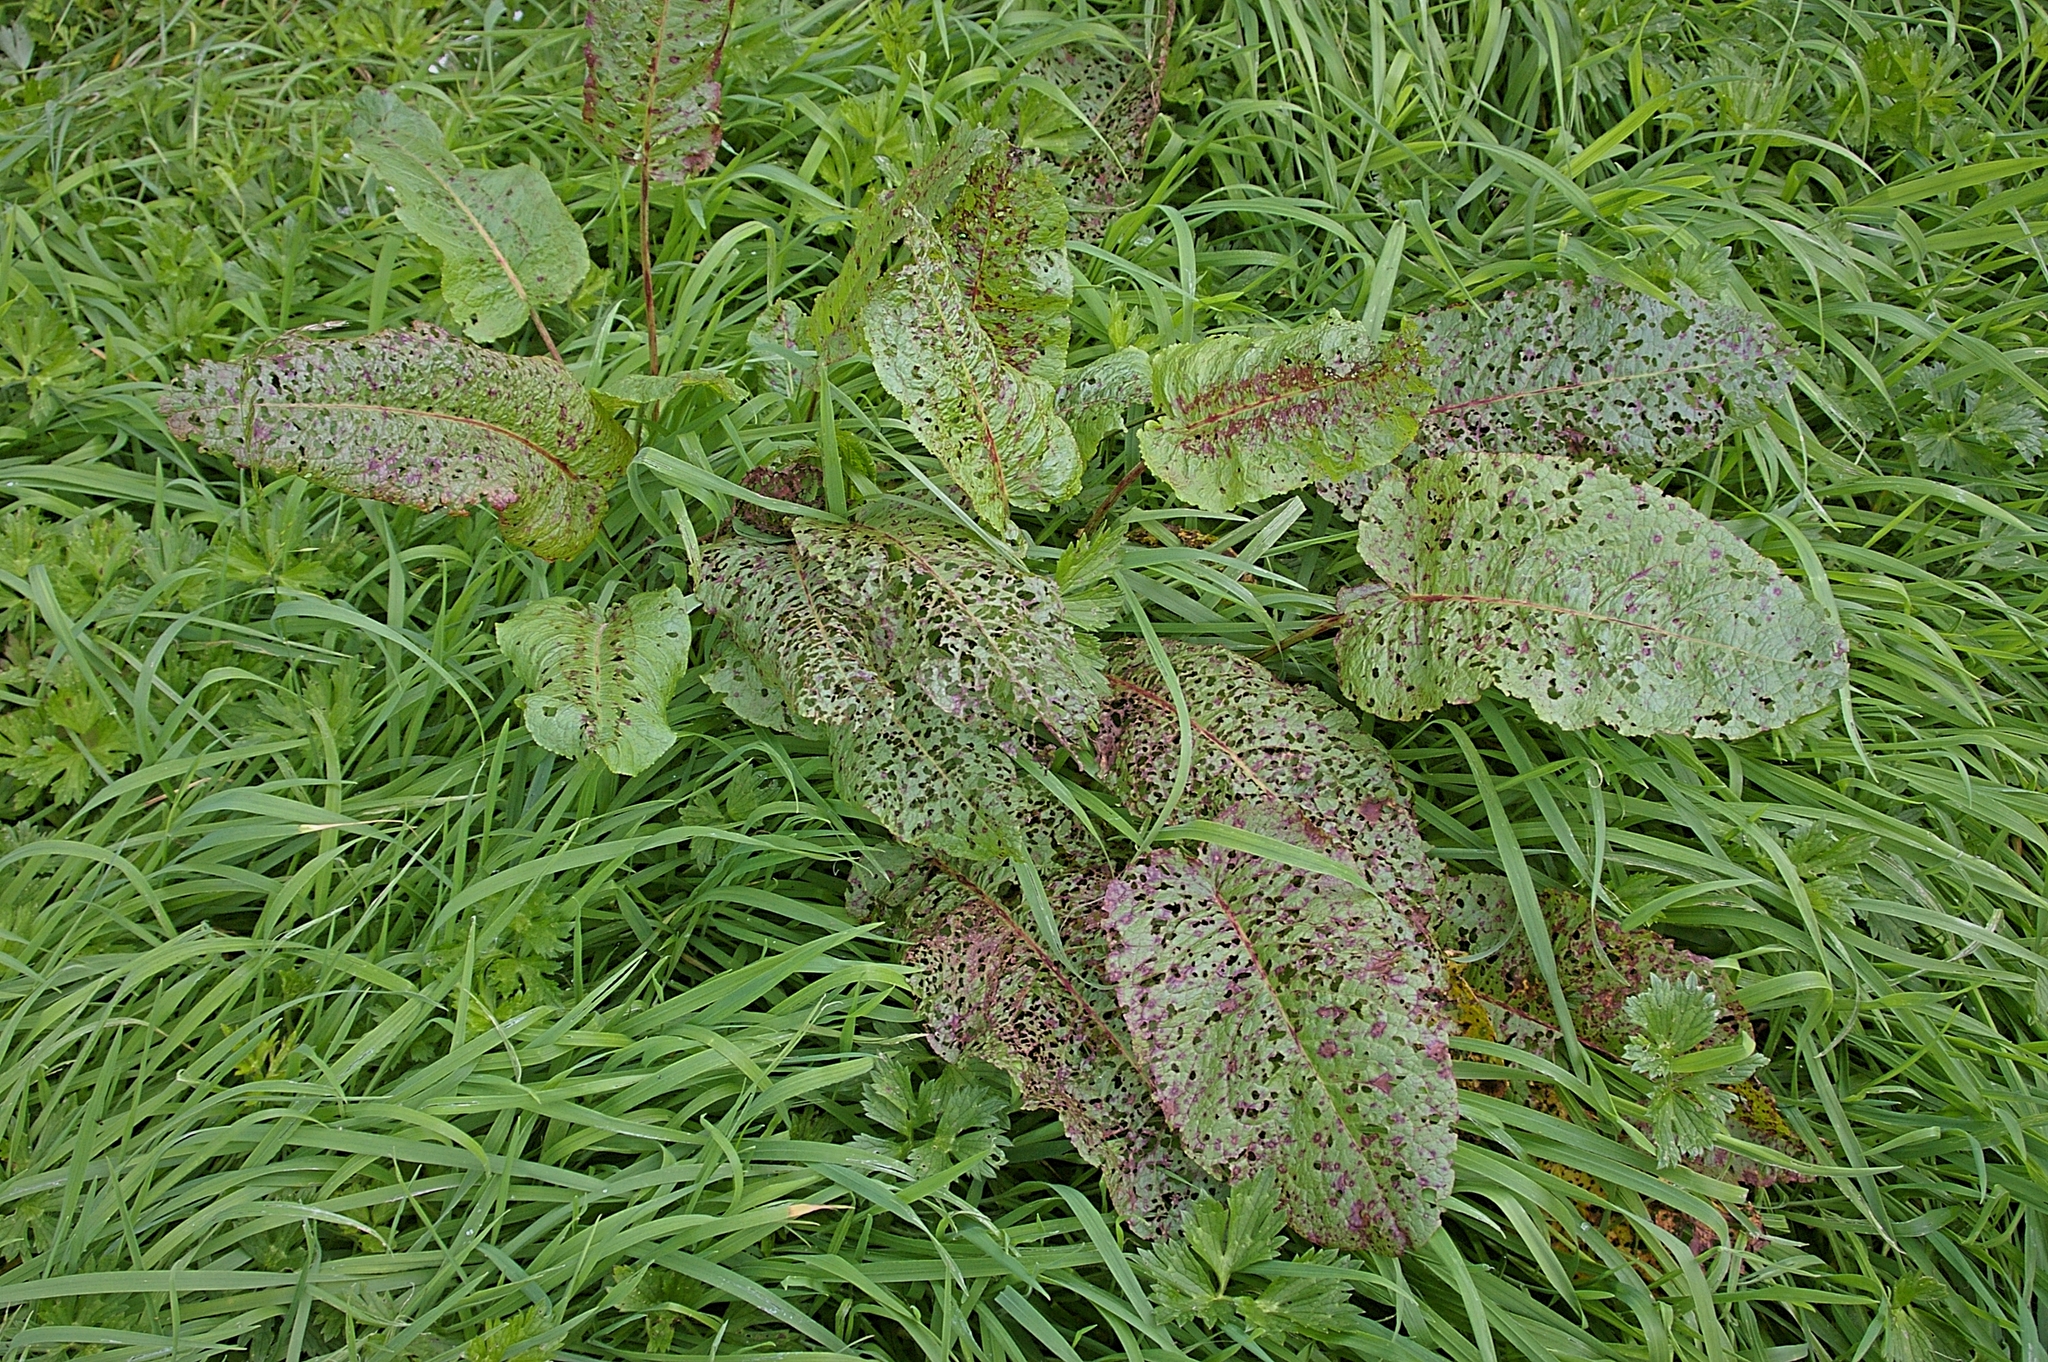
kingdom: Plantae
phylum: Tracheophyta
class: Magnoliopsida
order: Caryophyllales
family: Polygonaceae
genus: Rumex
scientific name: Rumex obtusifolius
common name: Bitter dock
